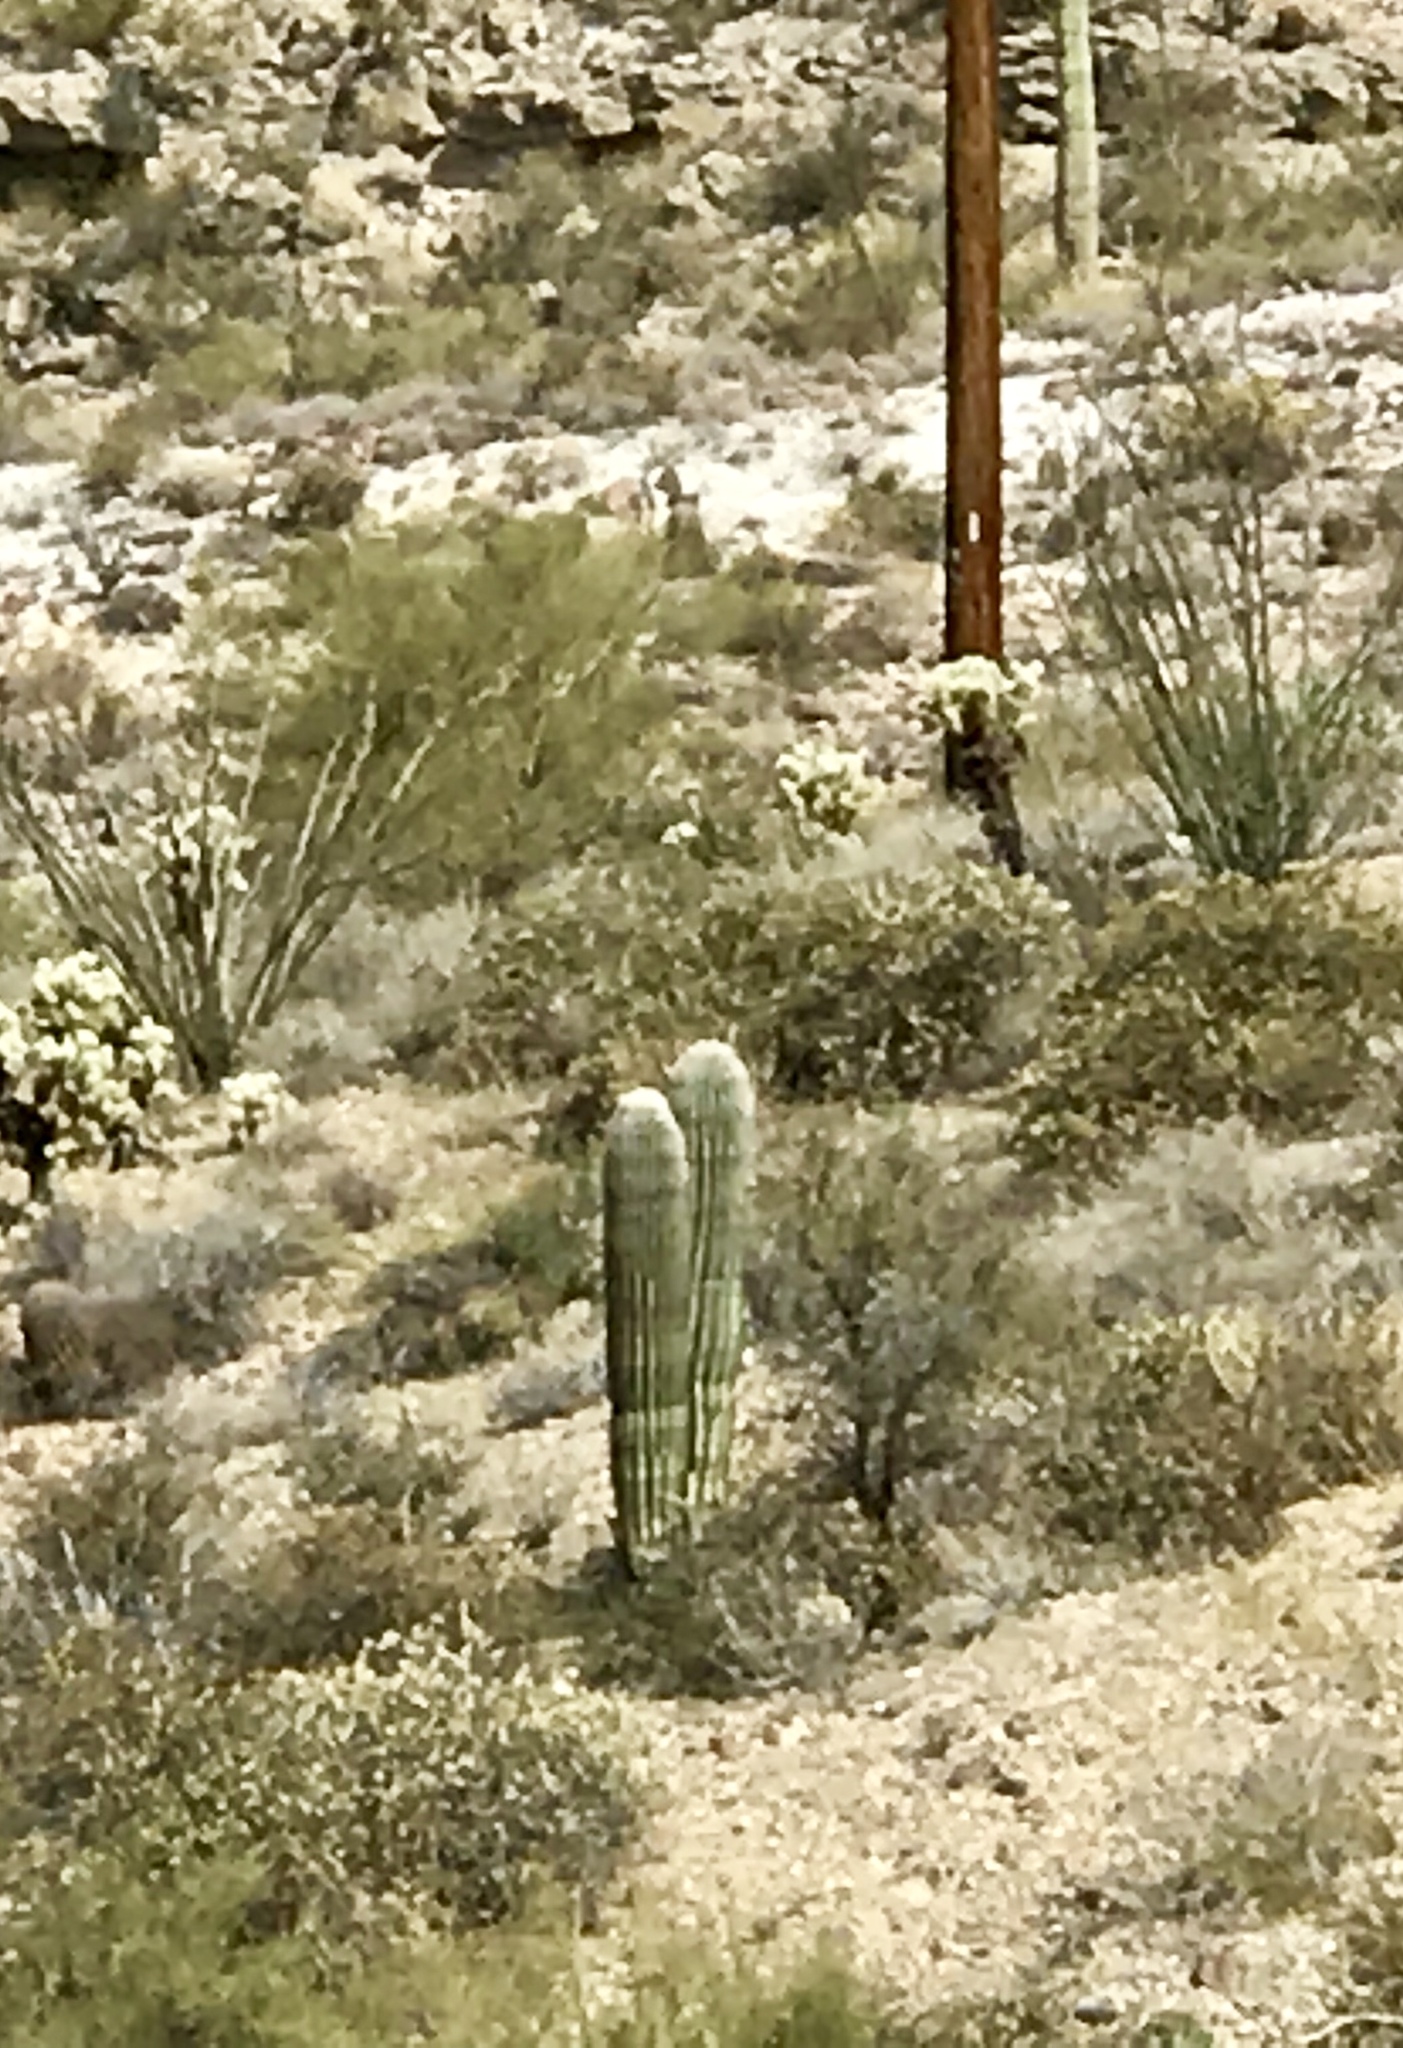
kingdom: Plantae
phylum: Tracheophyta
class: Magnoliopsida
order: Caryophyllales
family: Cactaceae
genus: Carnegiea
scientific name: Carnegiea gigantea
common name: Saguaro
